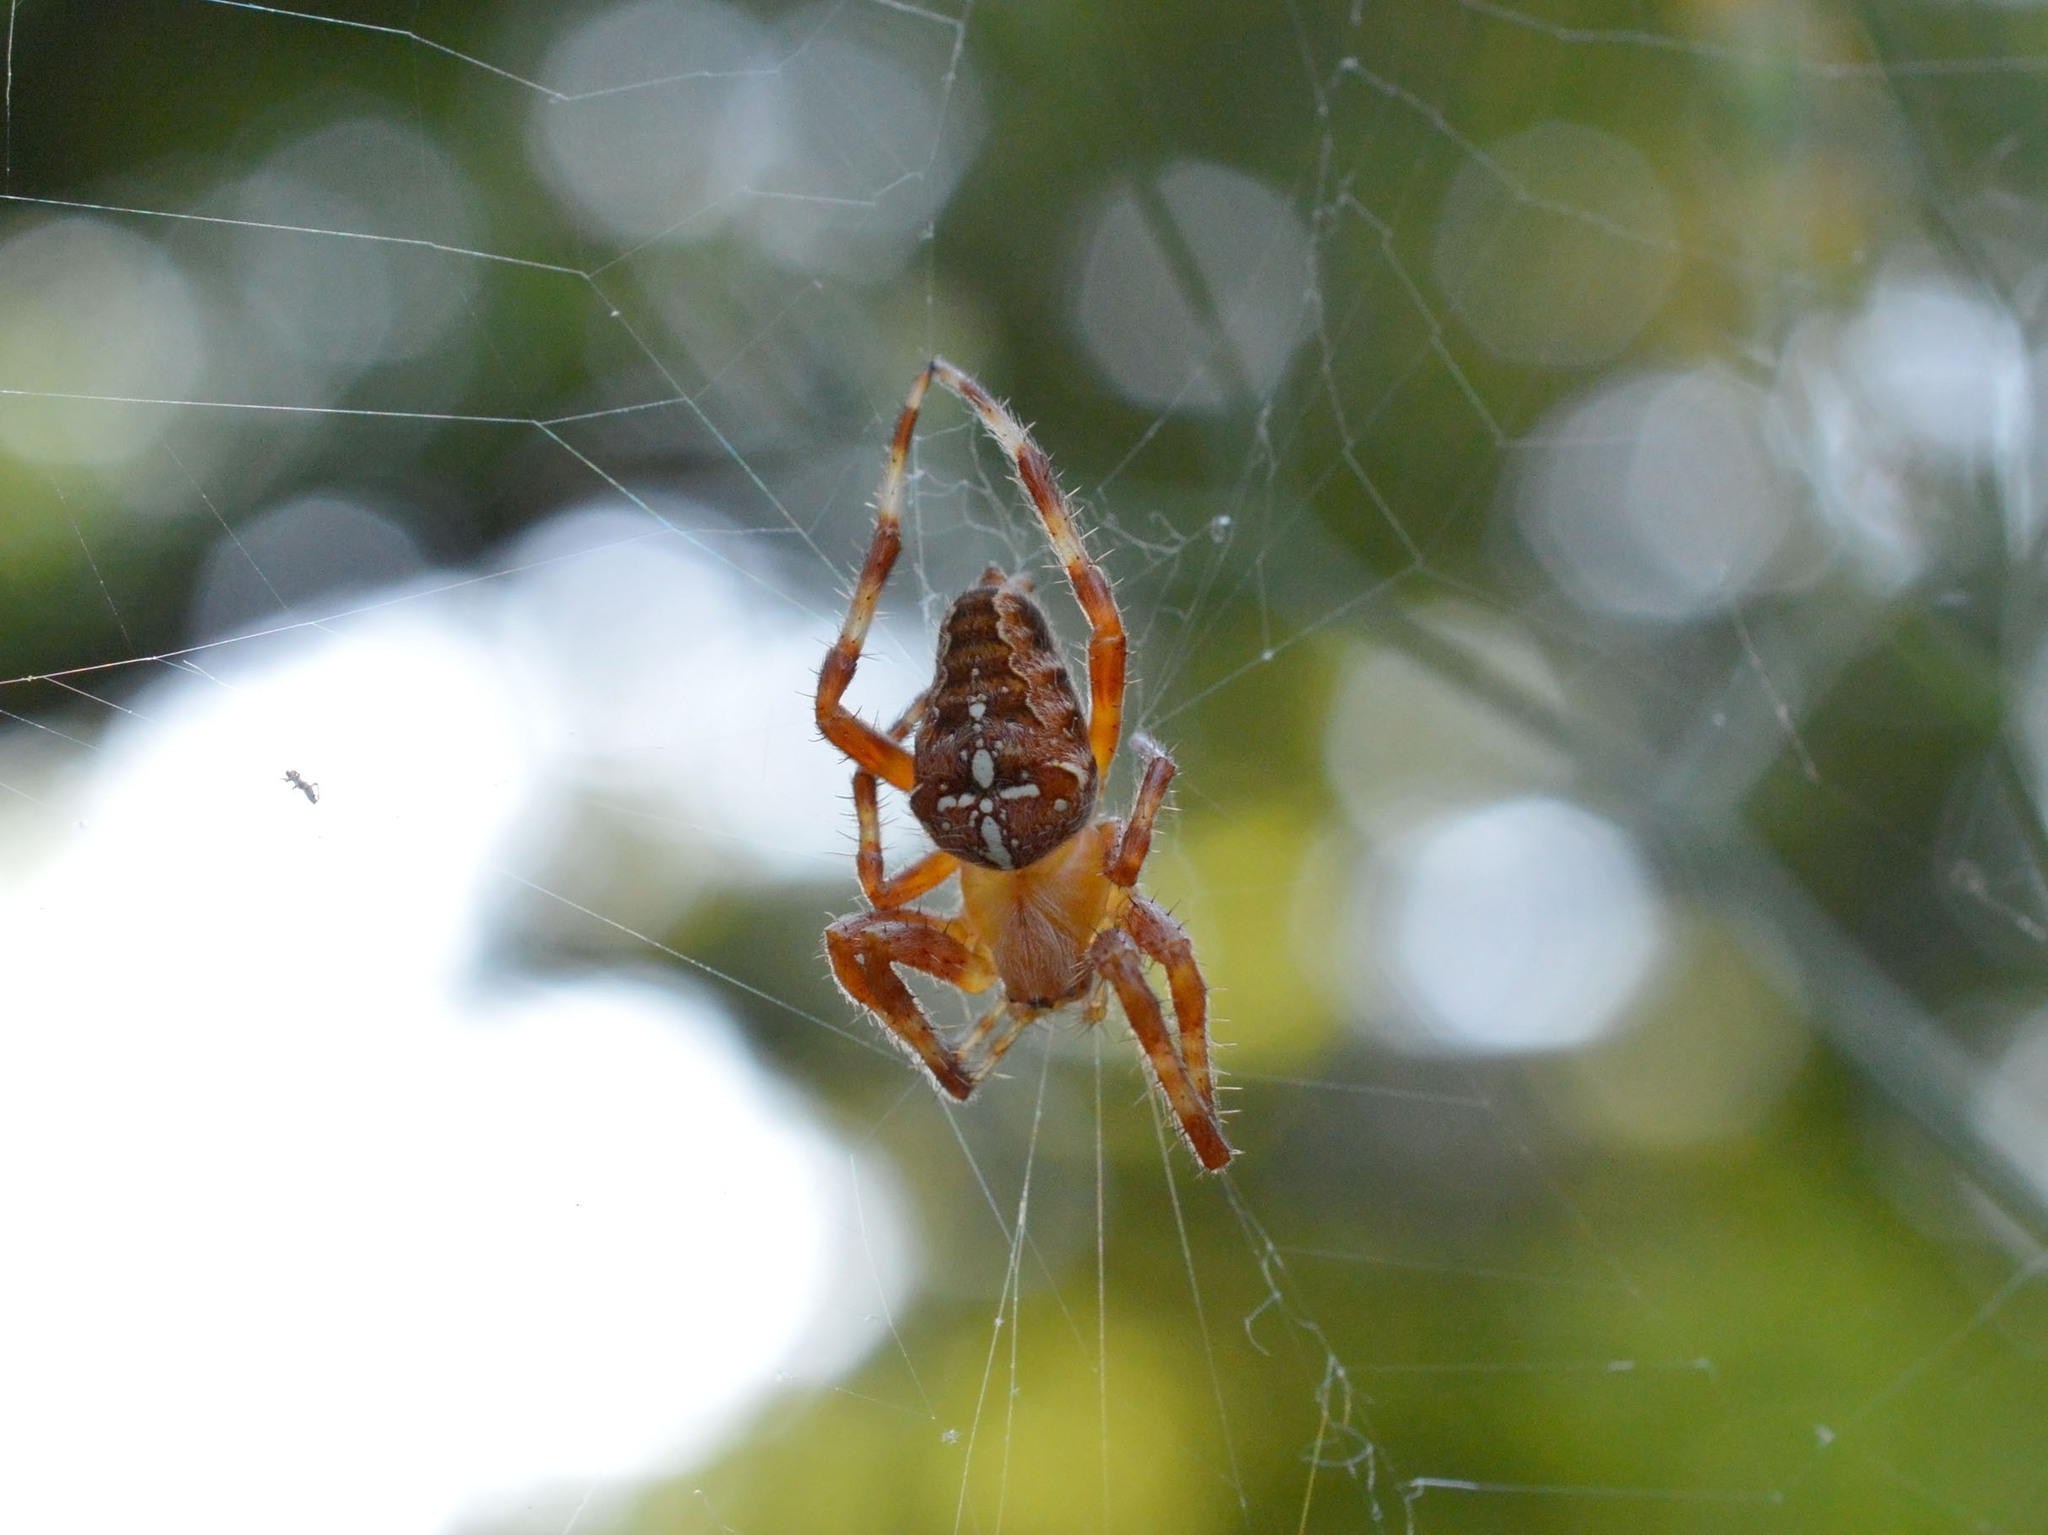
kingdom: Animalia
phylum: Arthropoda
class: Arachnida
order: Araneae
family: Araneidae
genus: Araneus
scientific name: Araneus diadematus
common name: Cross orbweaver
